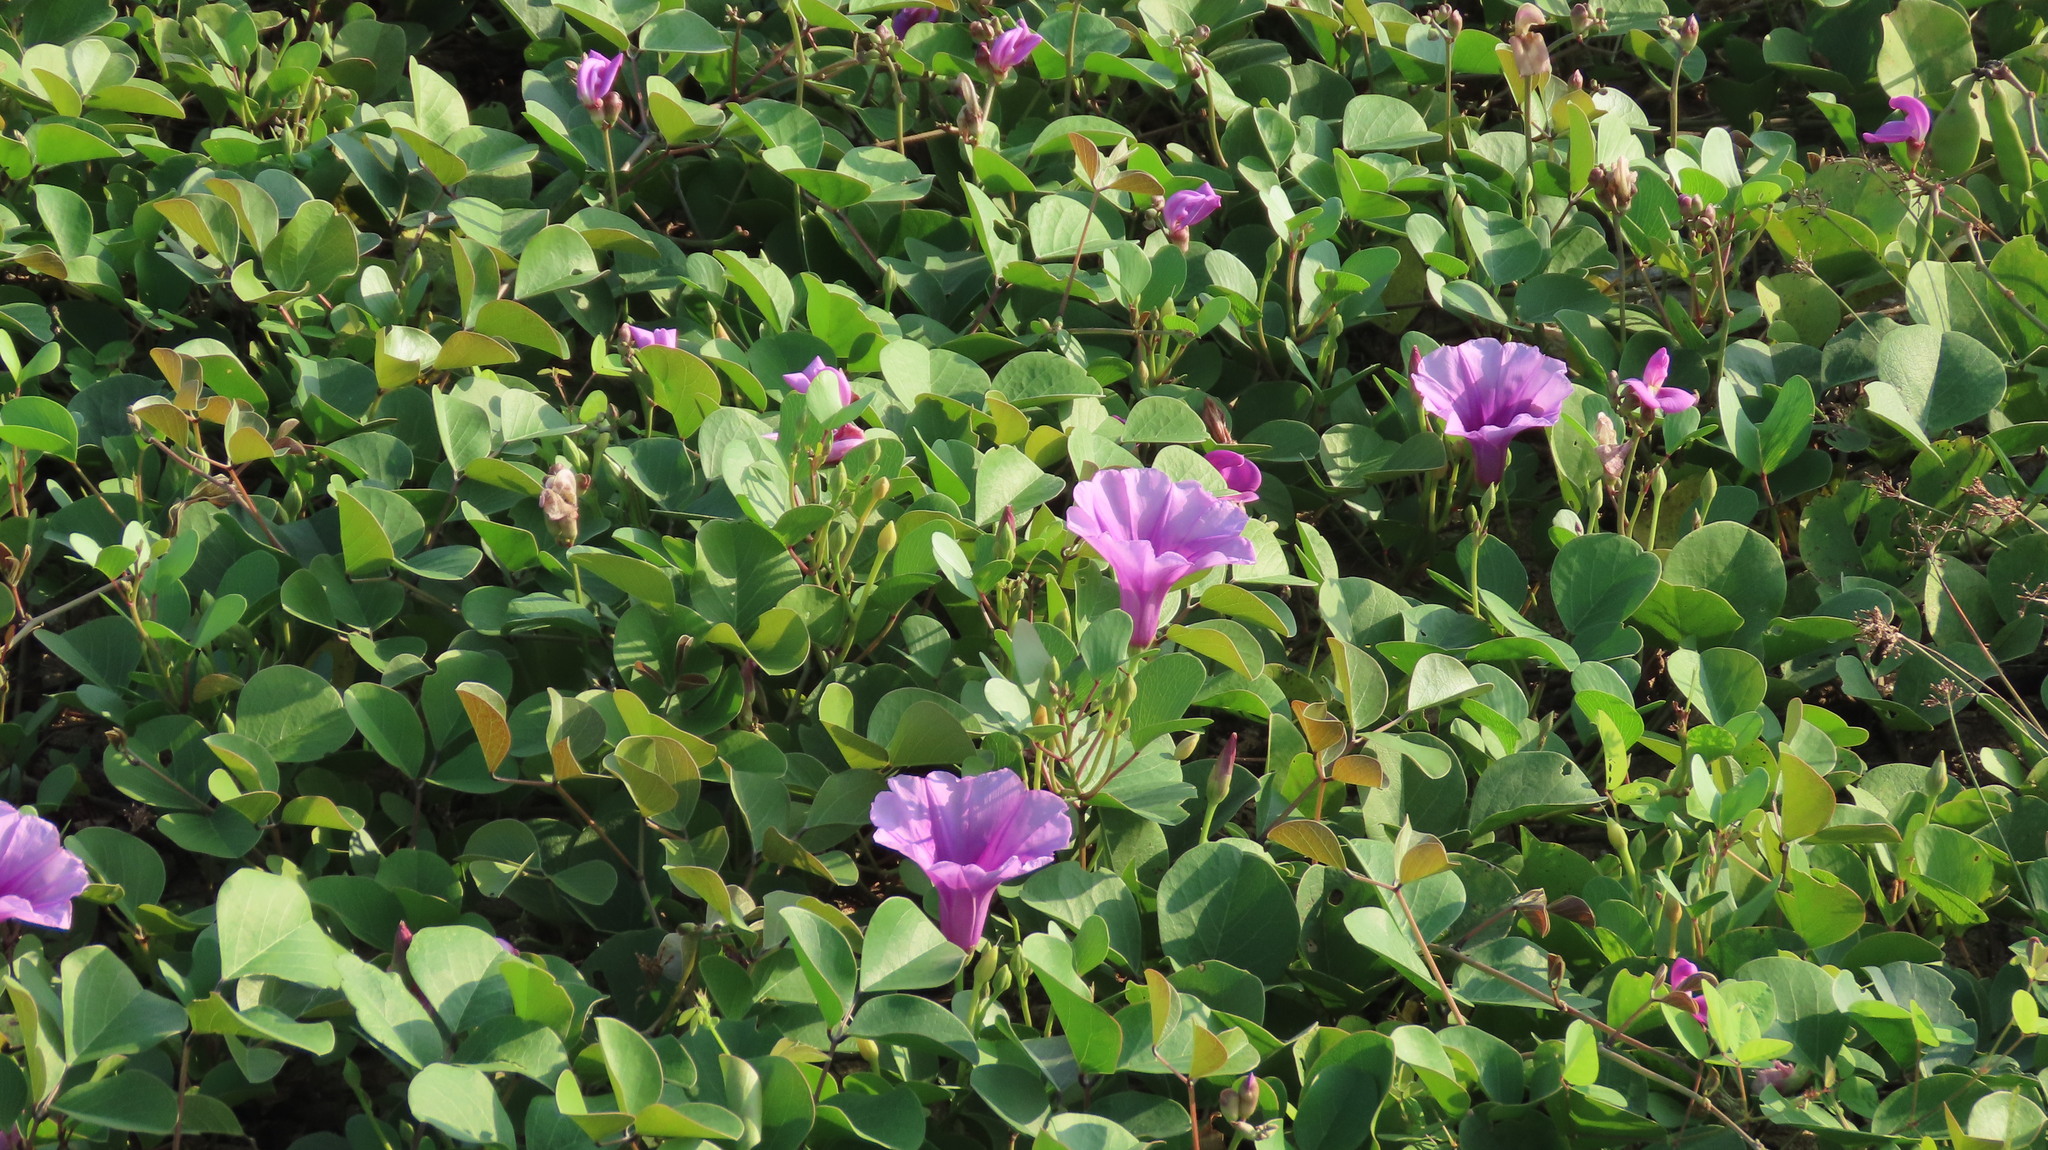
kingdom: Plantae
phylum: Tracheophyta
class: Magnoliopsida
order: Solanales
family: Convolvulaceae
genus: Ipomoea
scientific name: Ipomoea pes-caprae
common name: Beach morning glory
